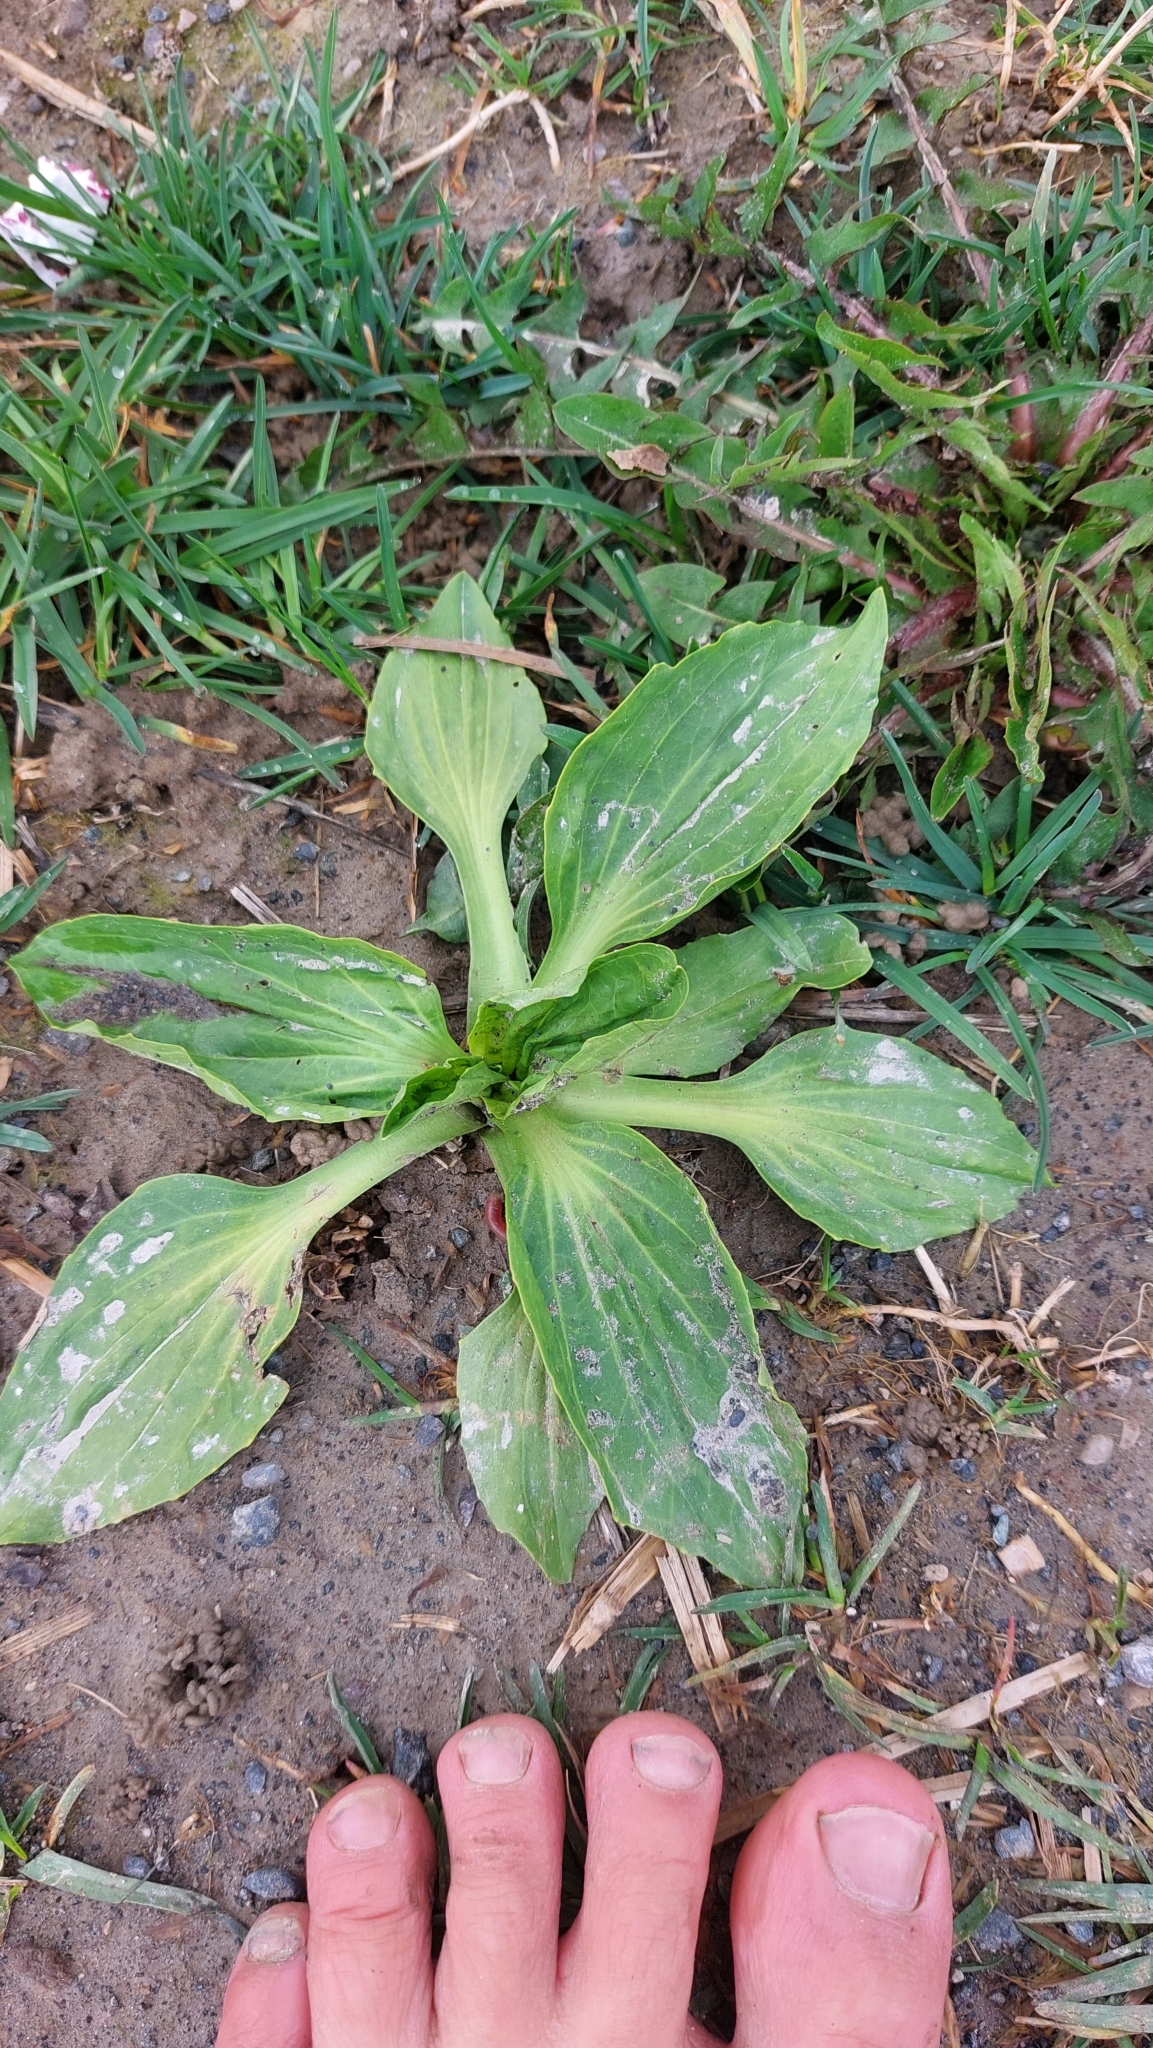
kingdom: Plantae
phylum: Tracheophyta
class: Magnoliopsida
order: Lamiales
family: Plantaginaceae
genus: Plantago
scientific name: Plantago major
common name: Common plantain
